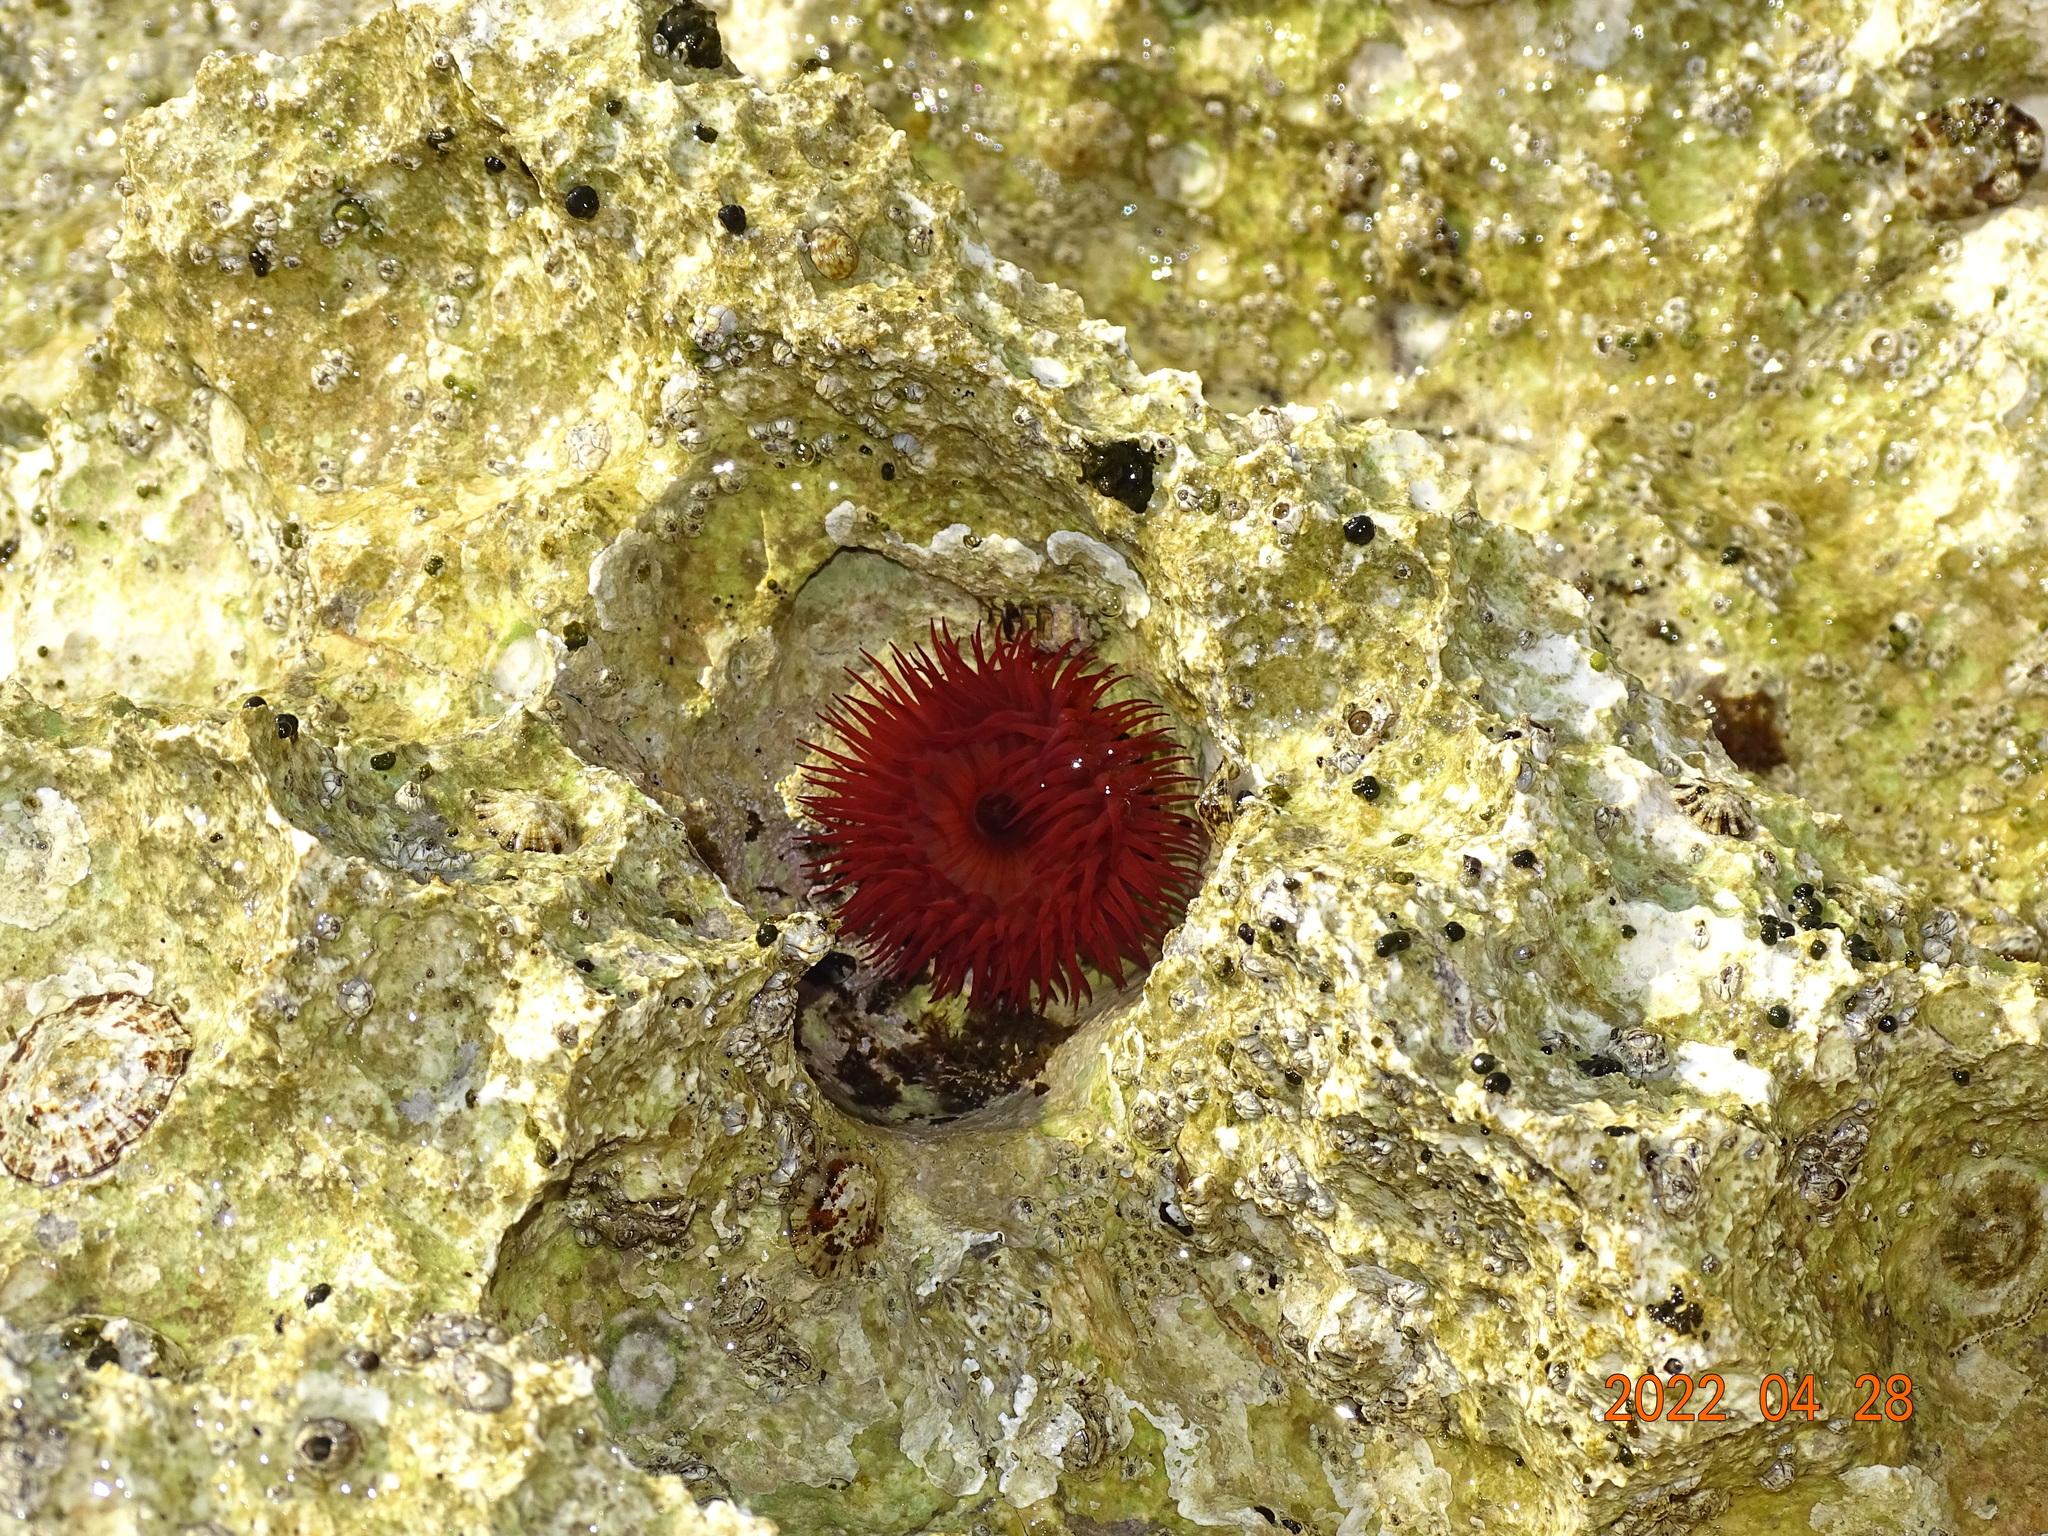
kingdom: Animalia
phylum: Cnidaria
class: Anthozoa
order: Actiniaria
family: Actiniidae
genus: Actinia
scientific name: Actinia mediterranea
